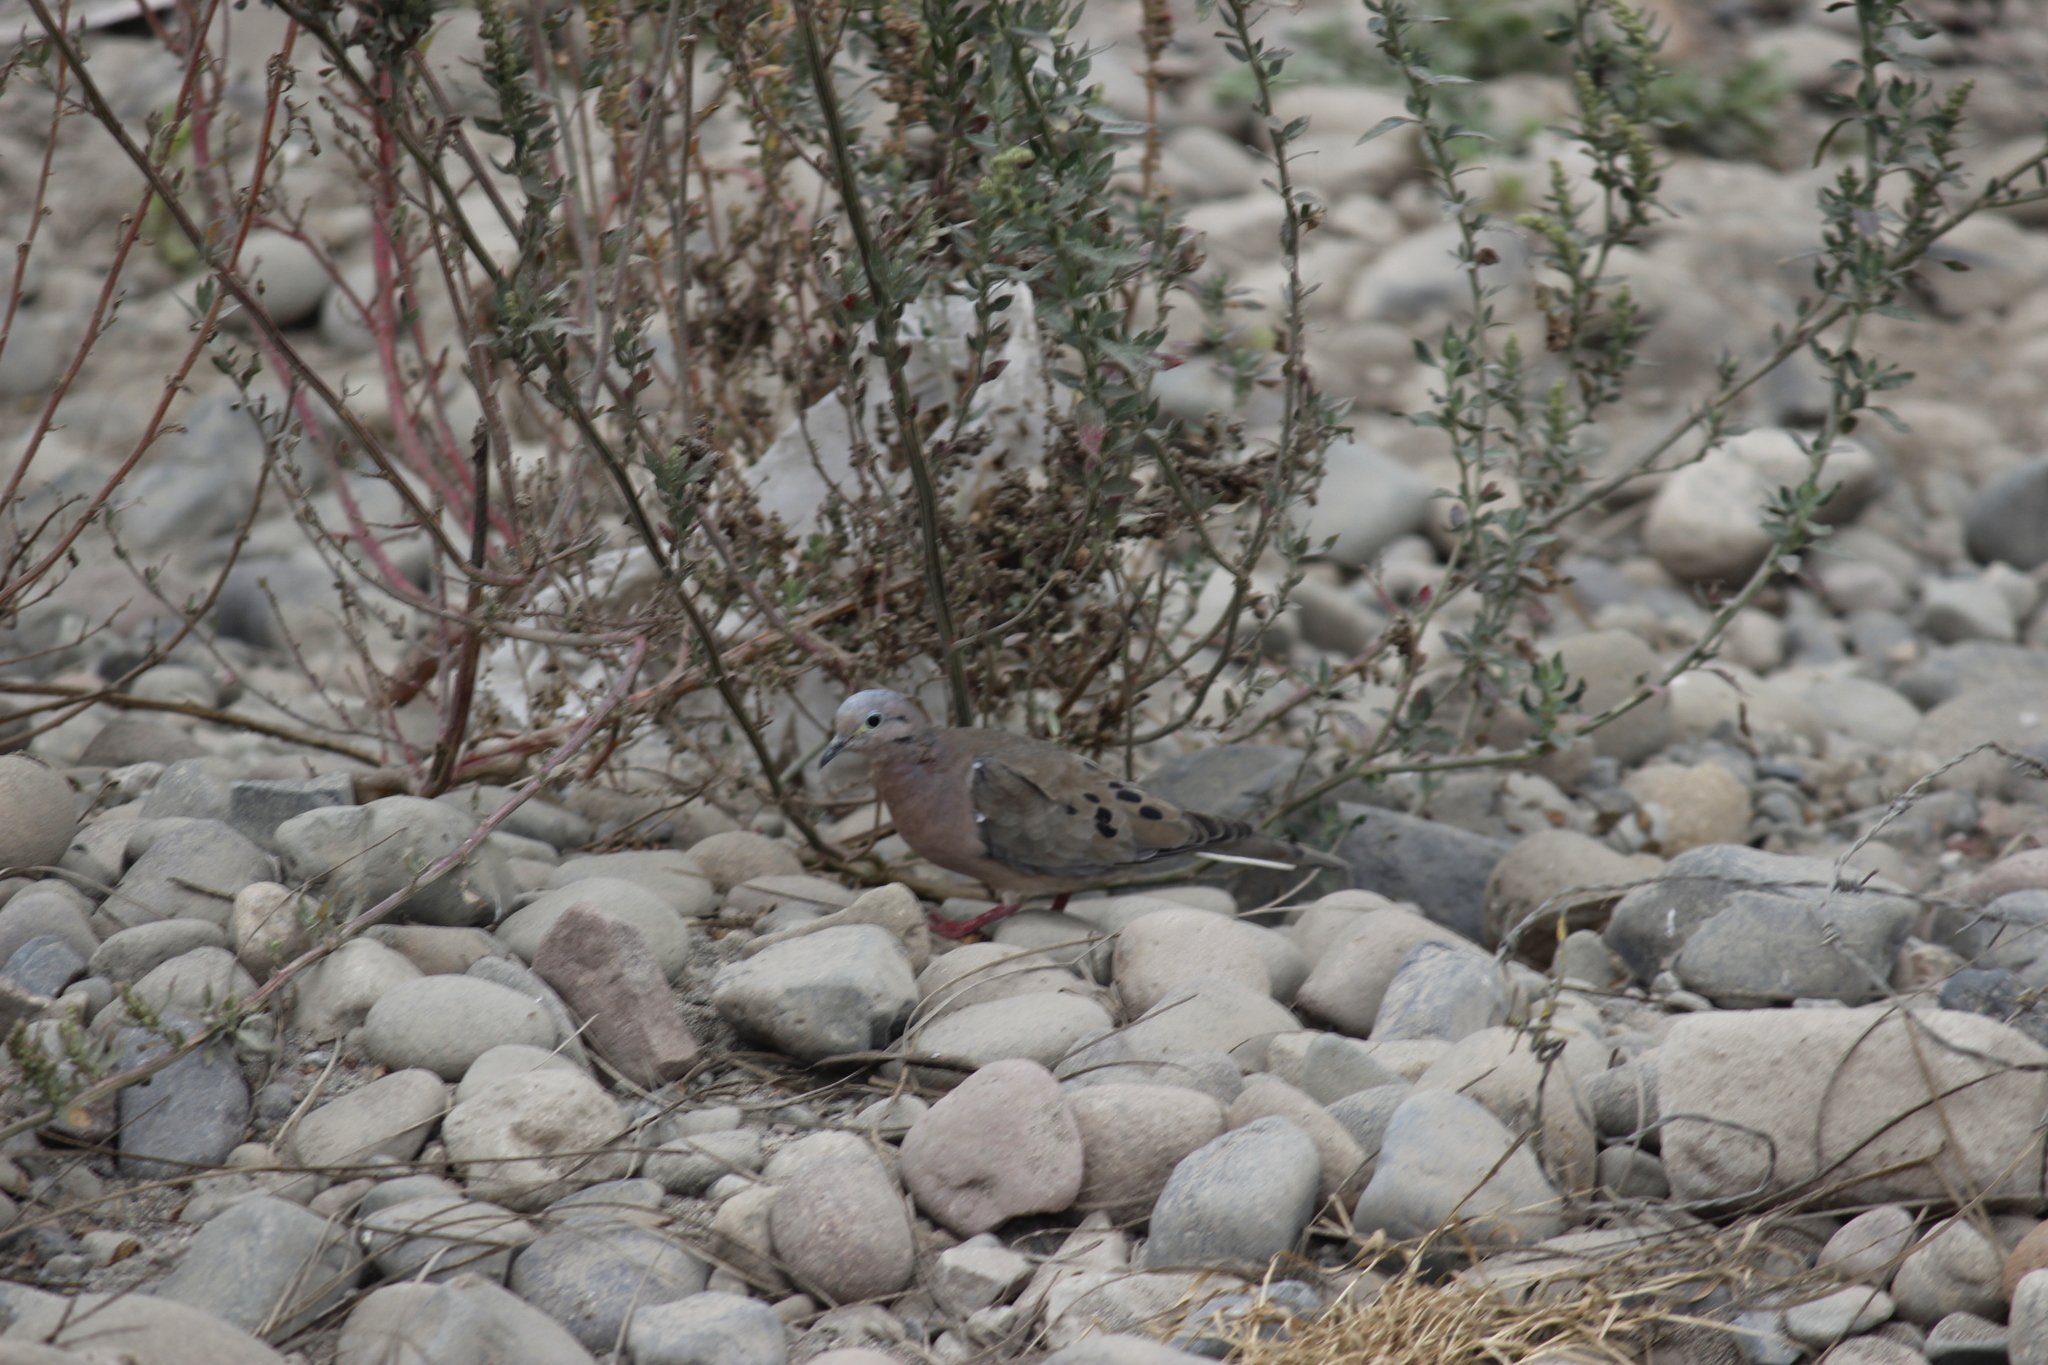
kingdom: Animalia
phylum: Chordata
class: Aves
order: Columbiformes
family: Columbidae
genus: Zenaida
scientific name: Zenaida auriculata
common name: Eared dove
